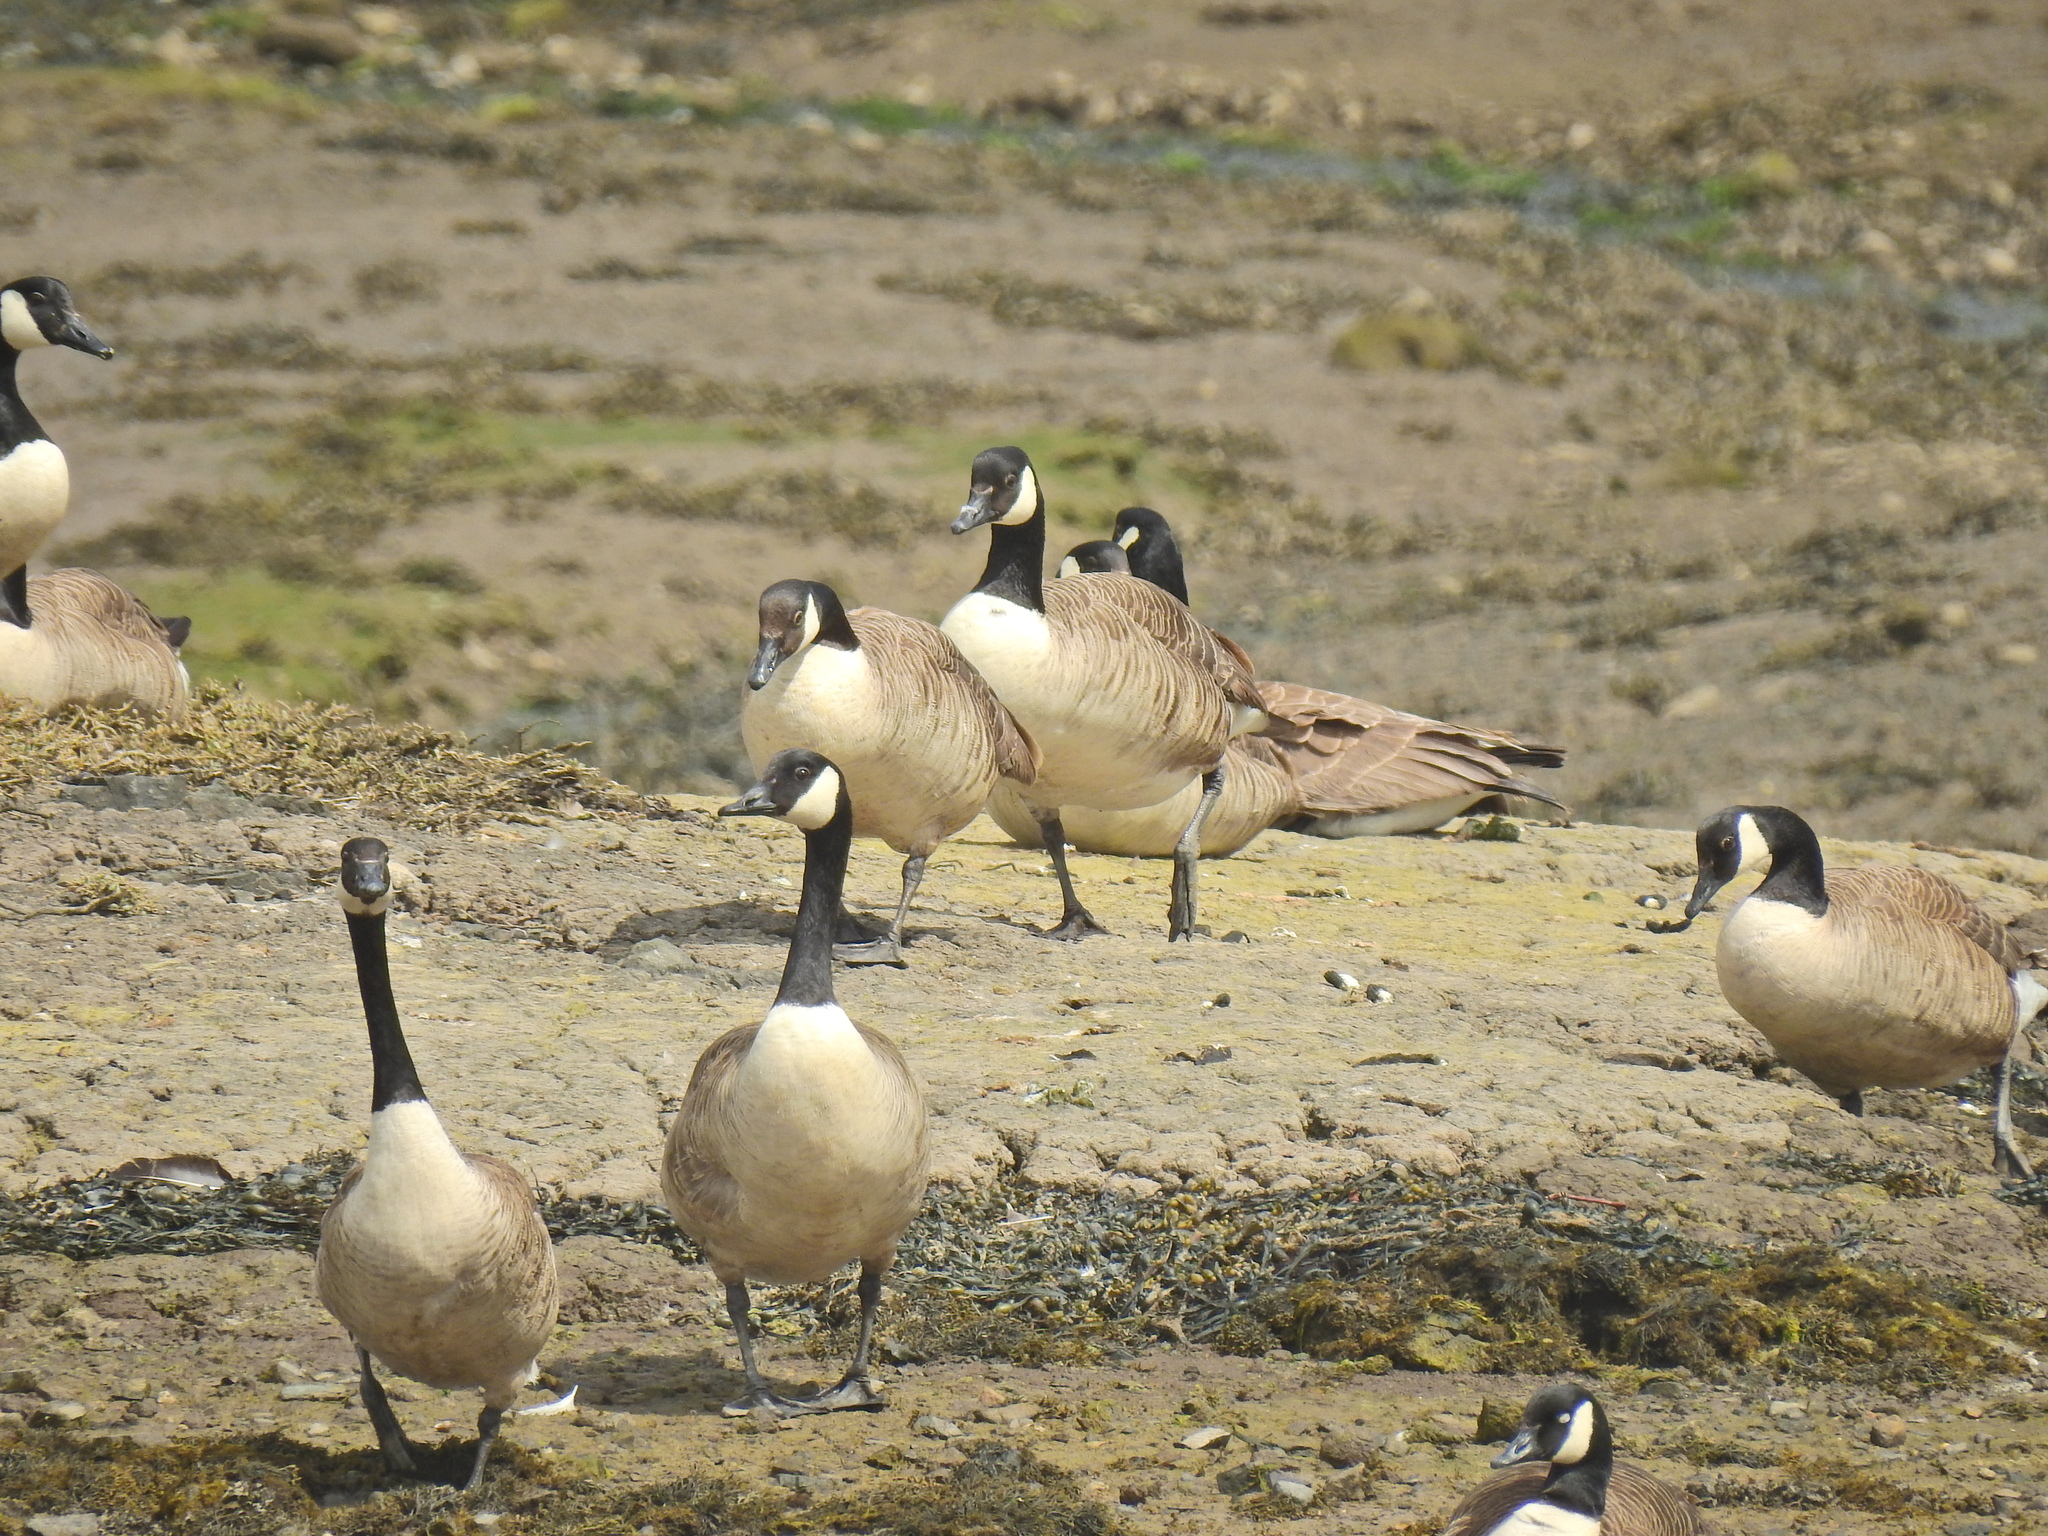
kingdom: Animalia
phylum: Chordata
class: Aves
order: Anseriformes
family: Anatidae
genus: Branta
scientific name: Branta canadensis
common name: Canada goose
